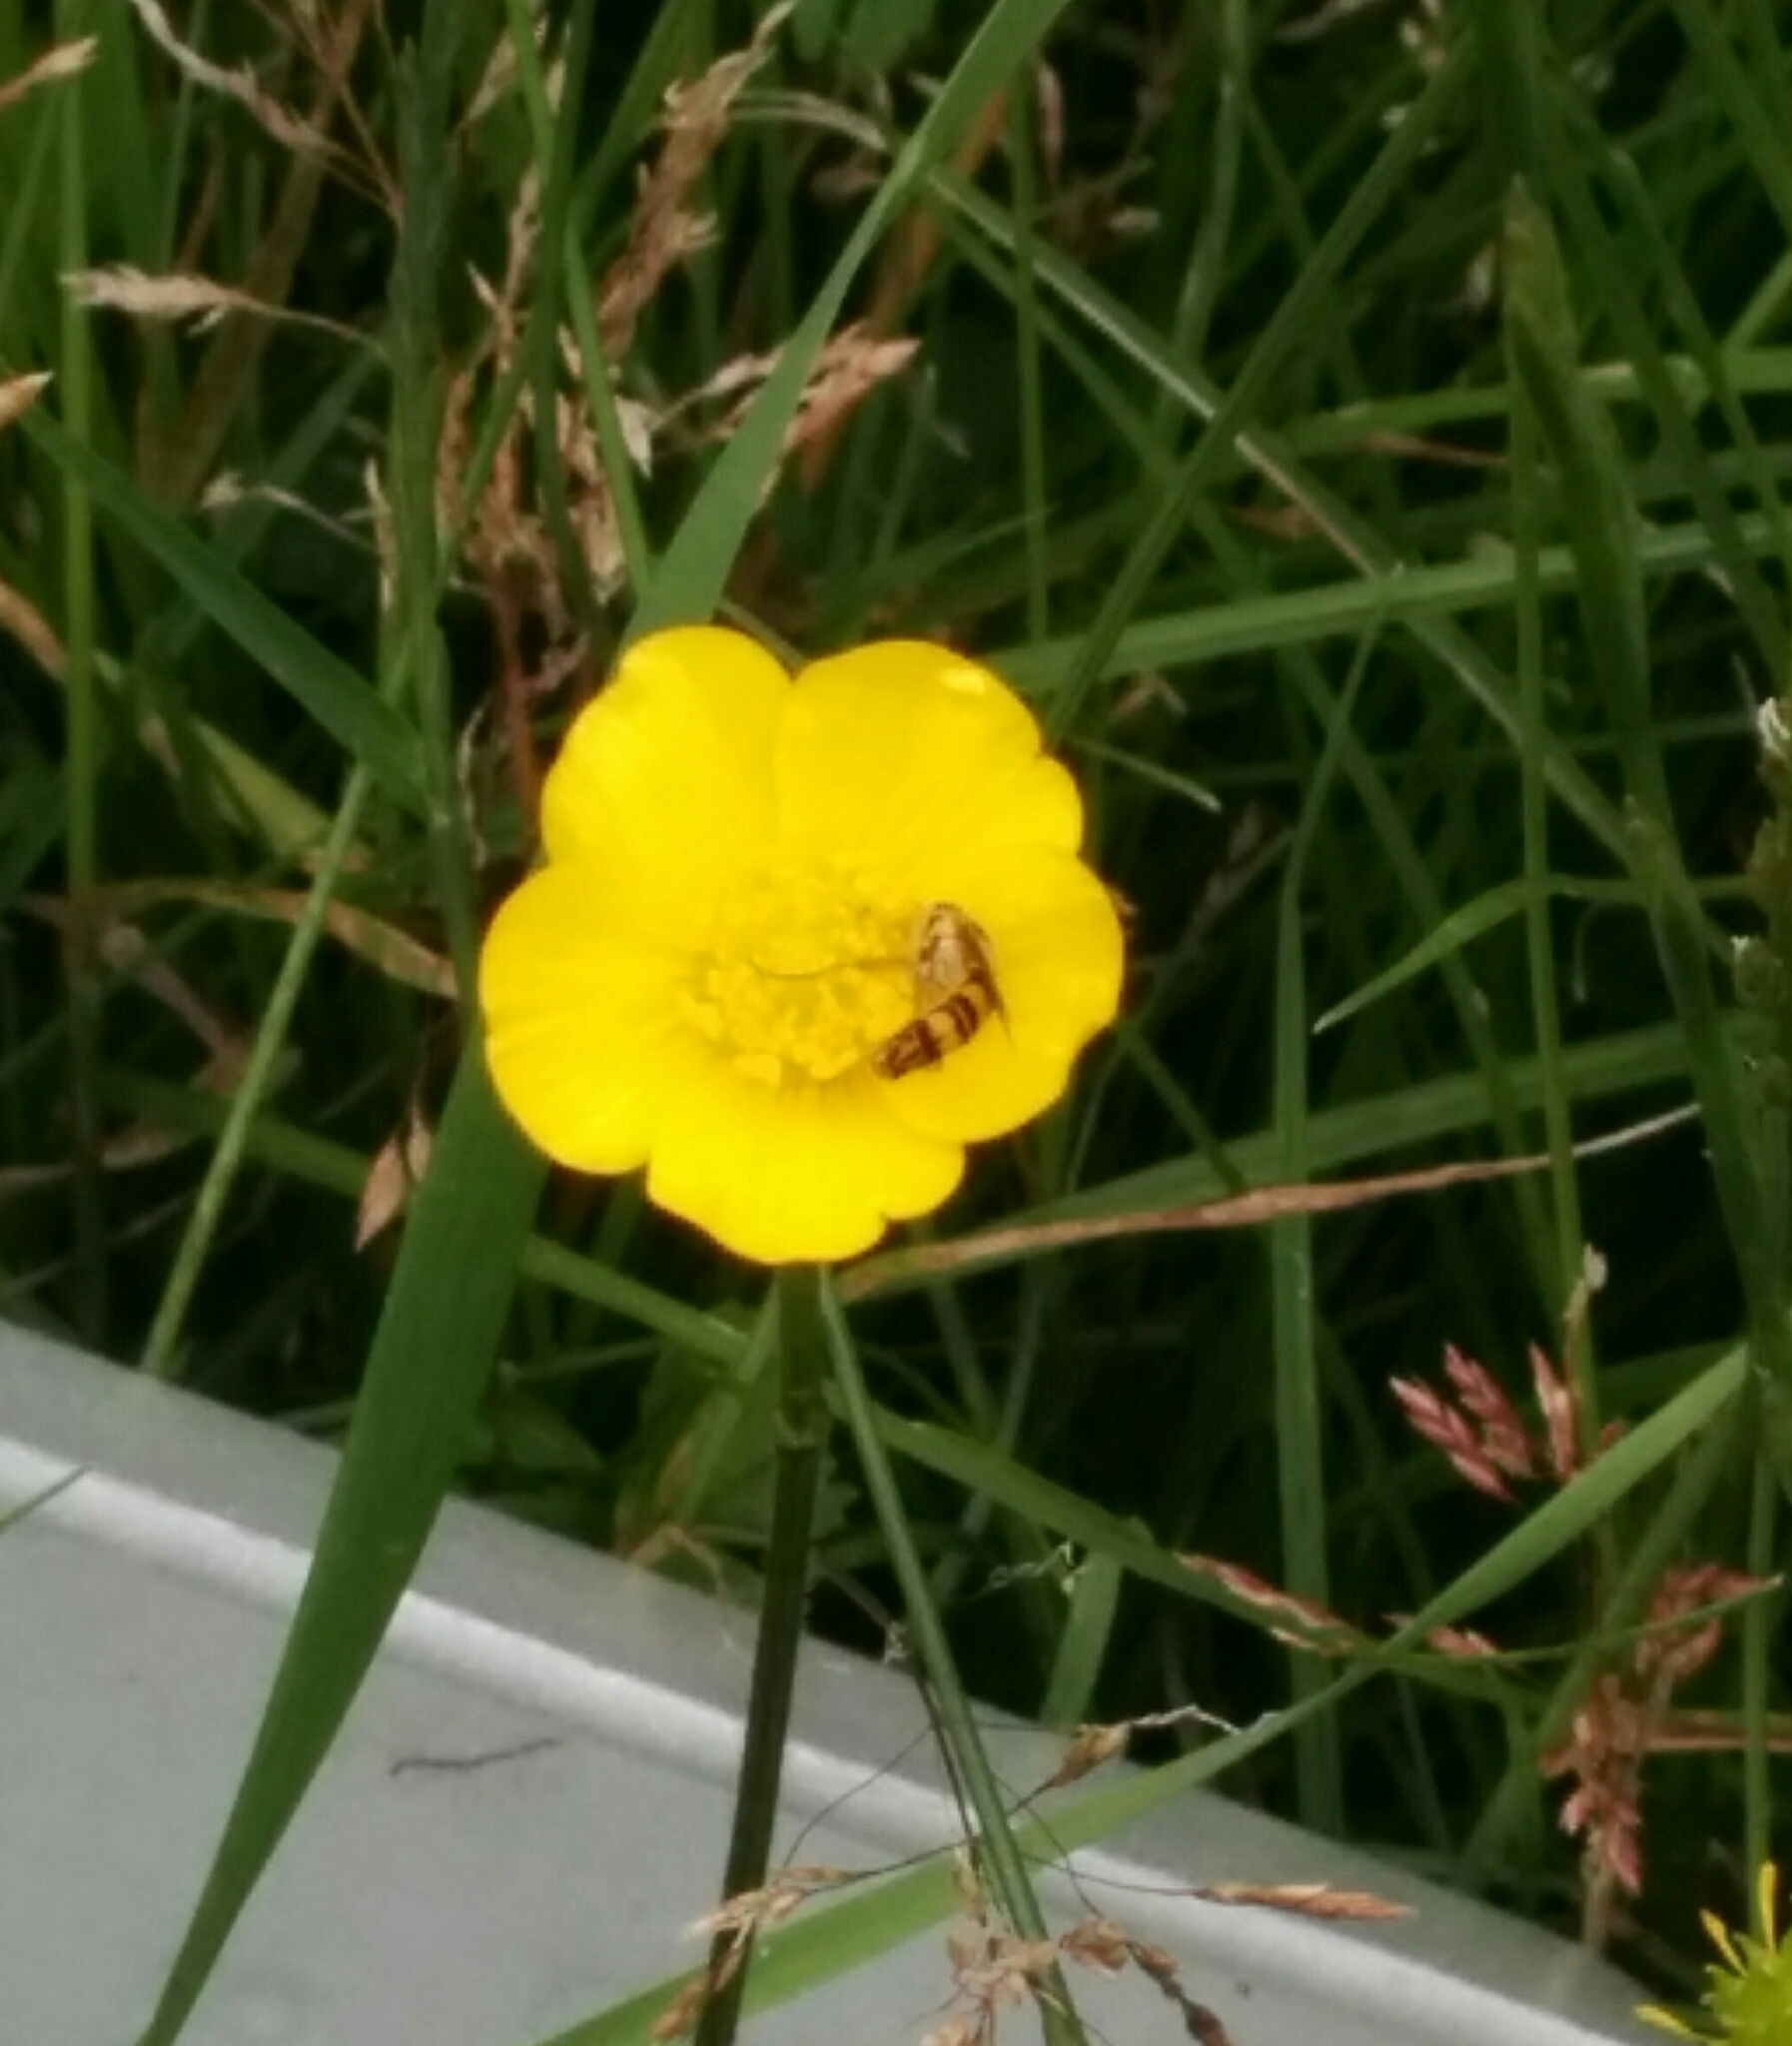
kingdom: Animalia
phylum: Arthropoda
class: Insecta
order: Diptera
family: Syrphidae
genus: Sphaerophoria
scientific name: Sphaerophoria scripta
